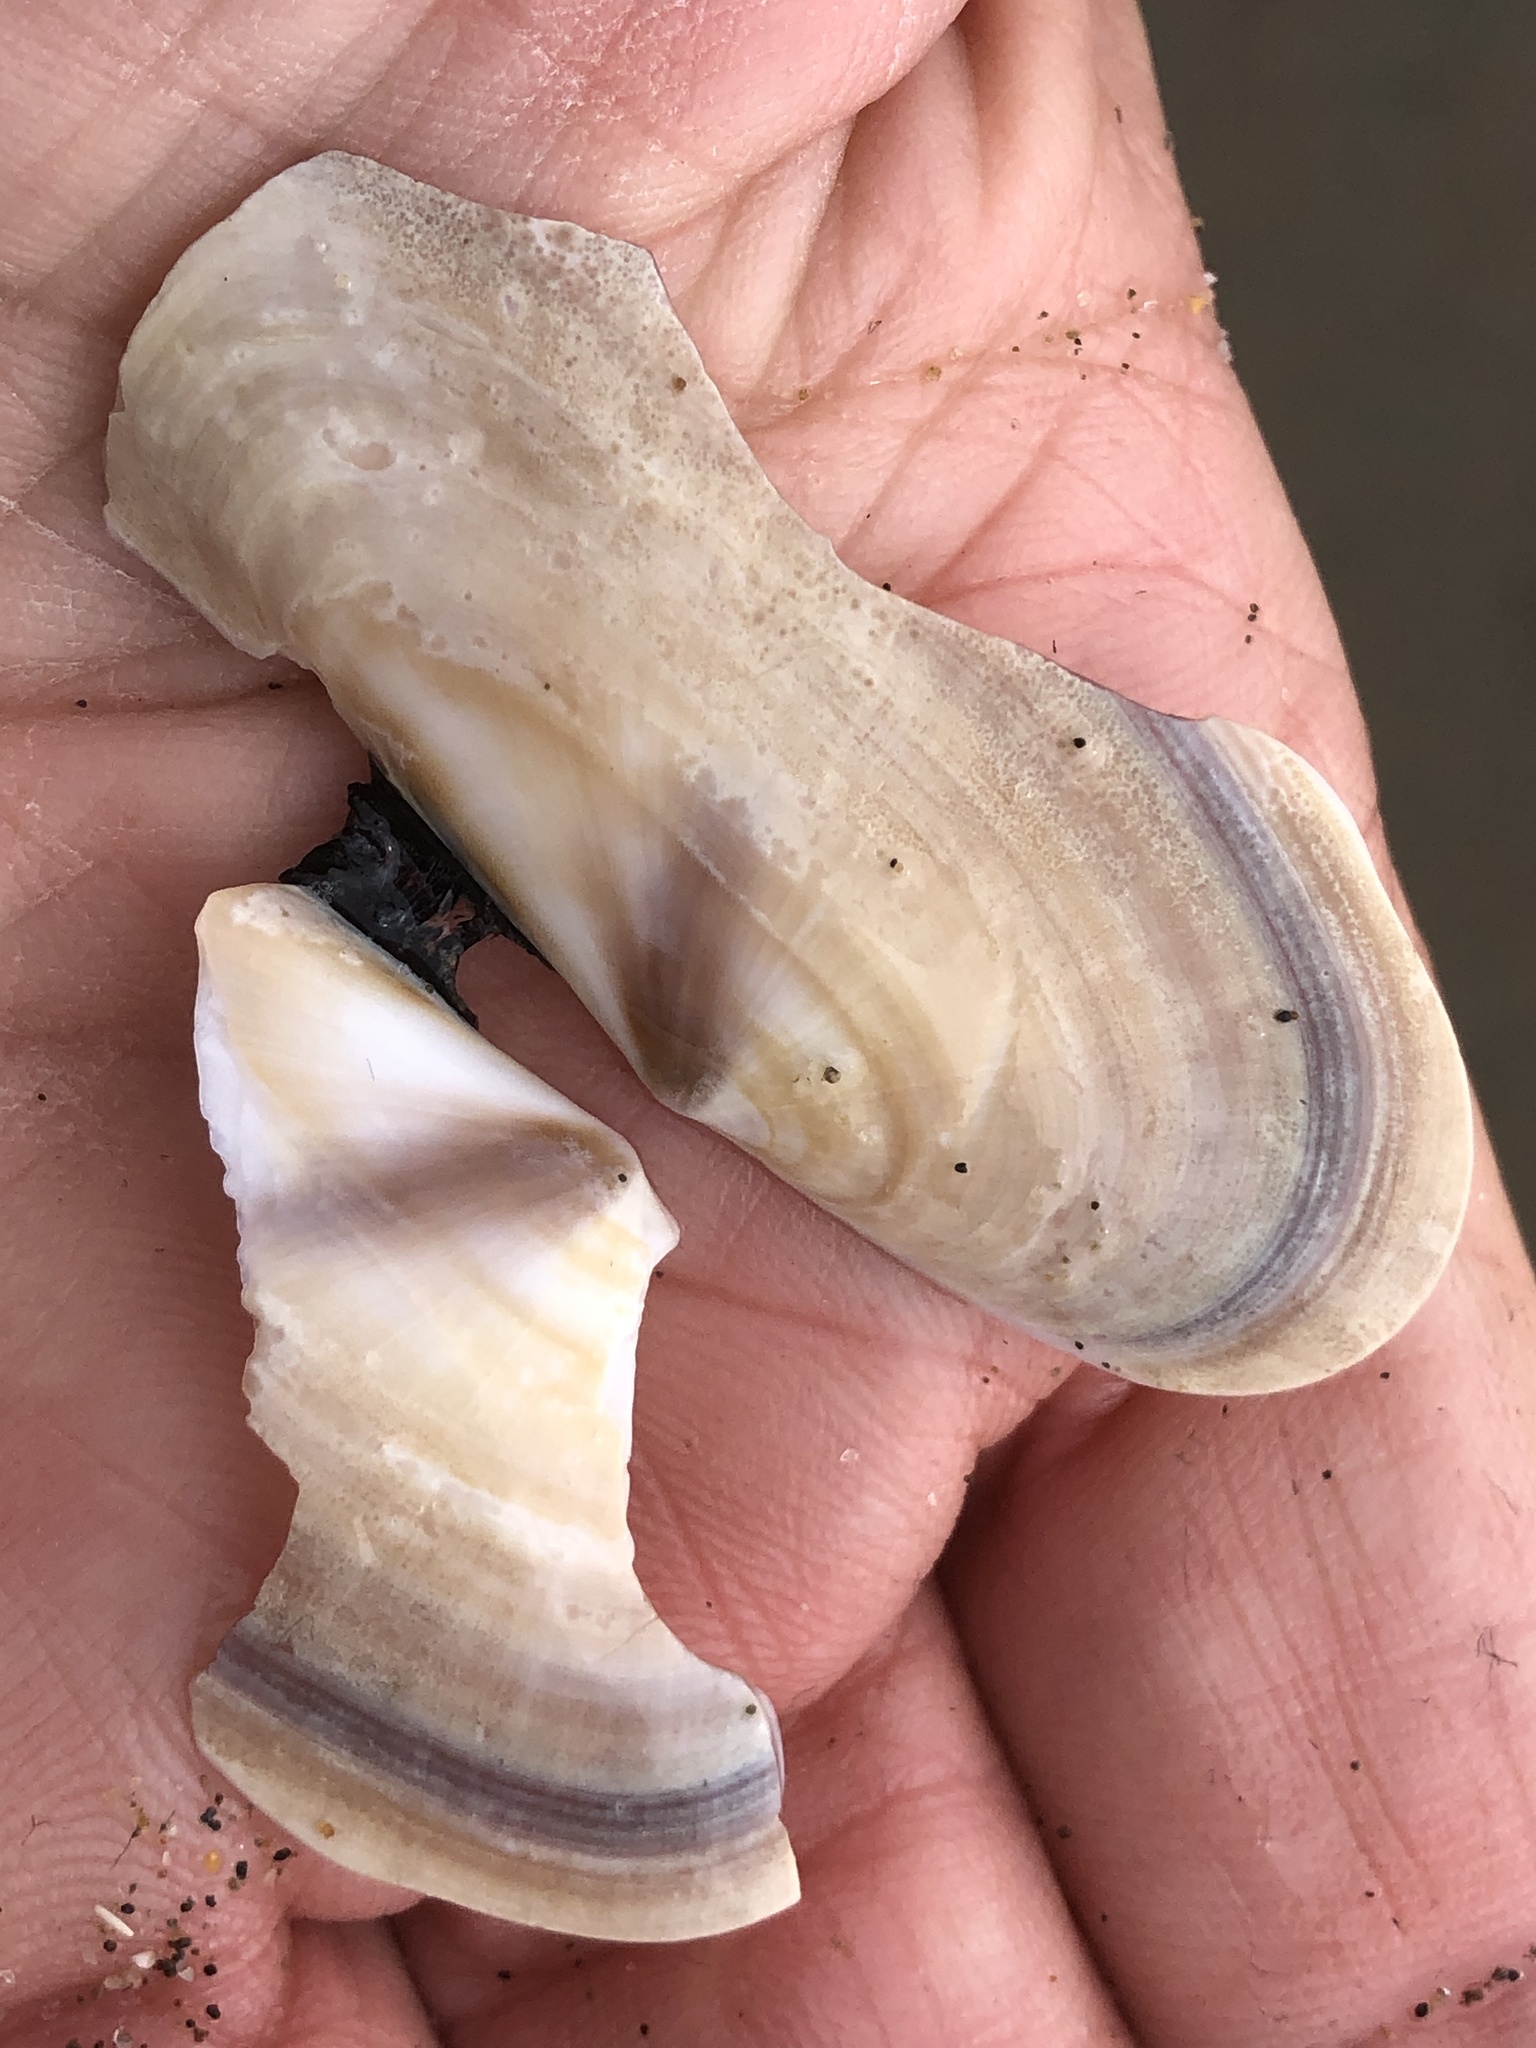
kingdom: Animalia
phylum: Mollusca
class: Bivalvia
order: Adapedonta
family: Pharidae
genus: Siliqua
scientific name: Siliqua patula
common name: Pacific razor clam
